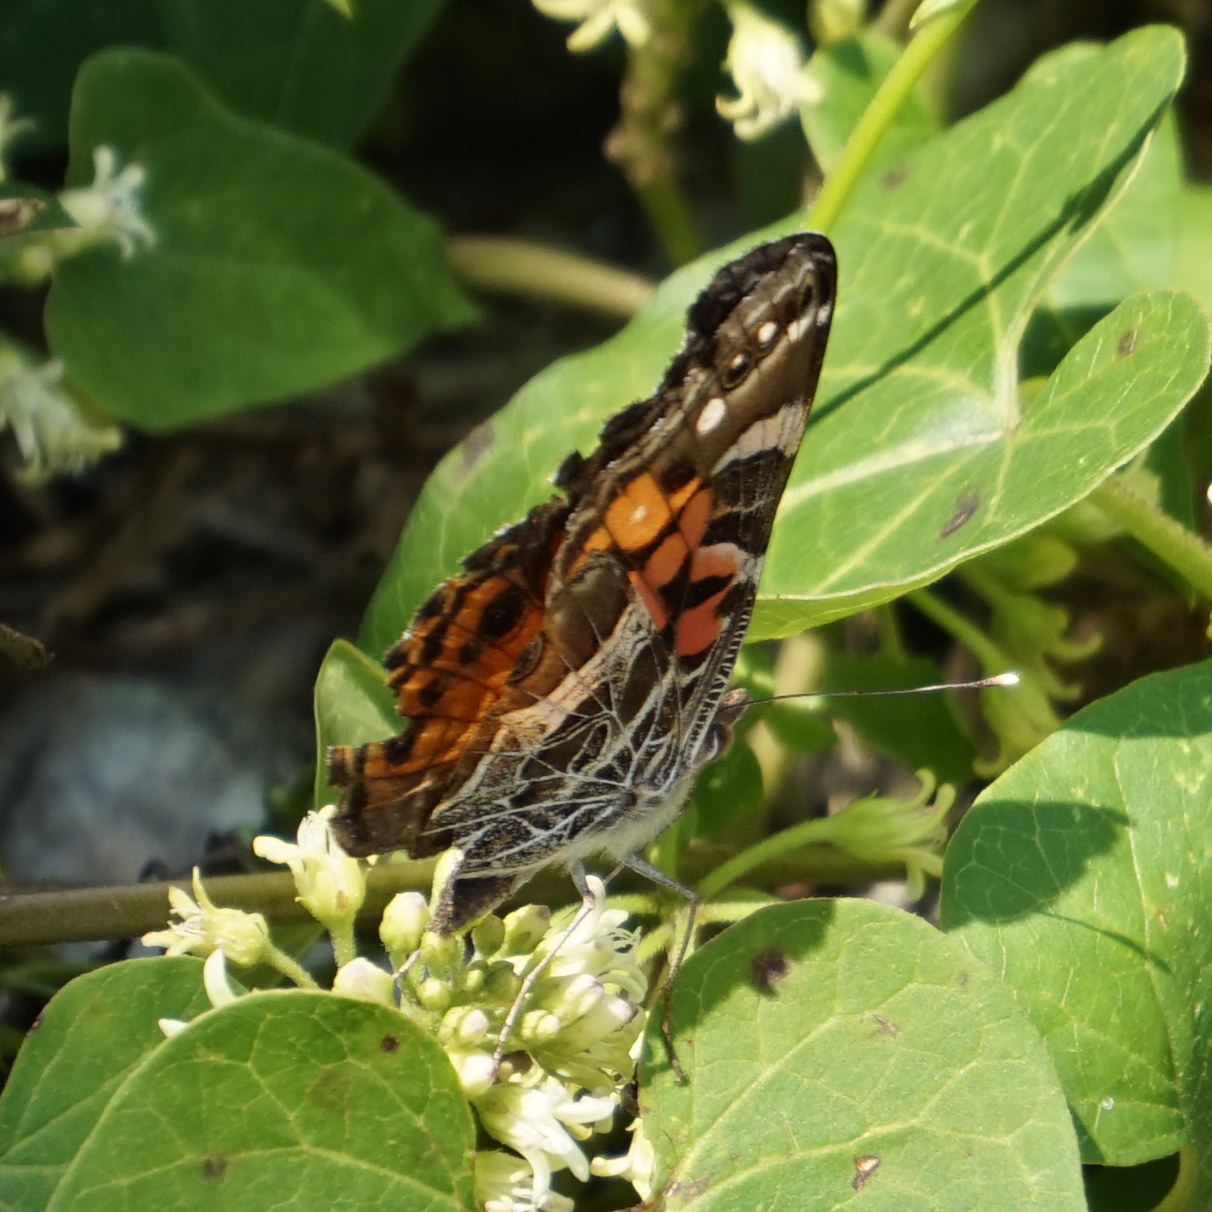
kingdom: Animalia
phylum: Arthropoda
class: Insecta
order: Lepidoptera
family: Nymphalidae
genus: Vanessa
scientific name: Vanessa virginiensis
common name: American lady
